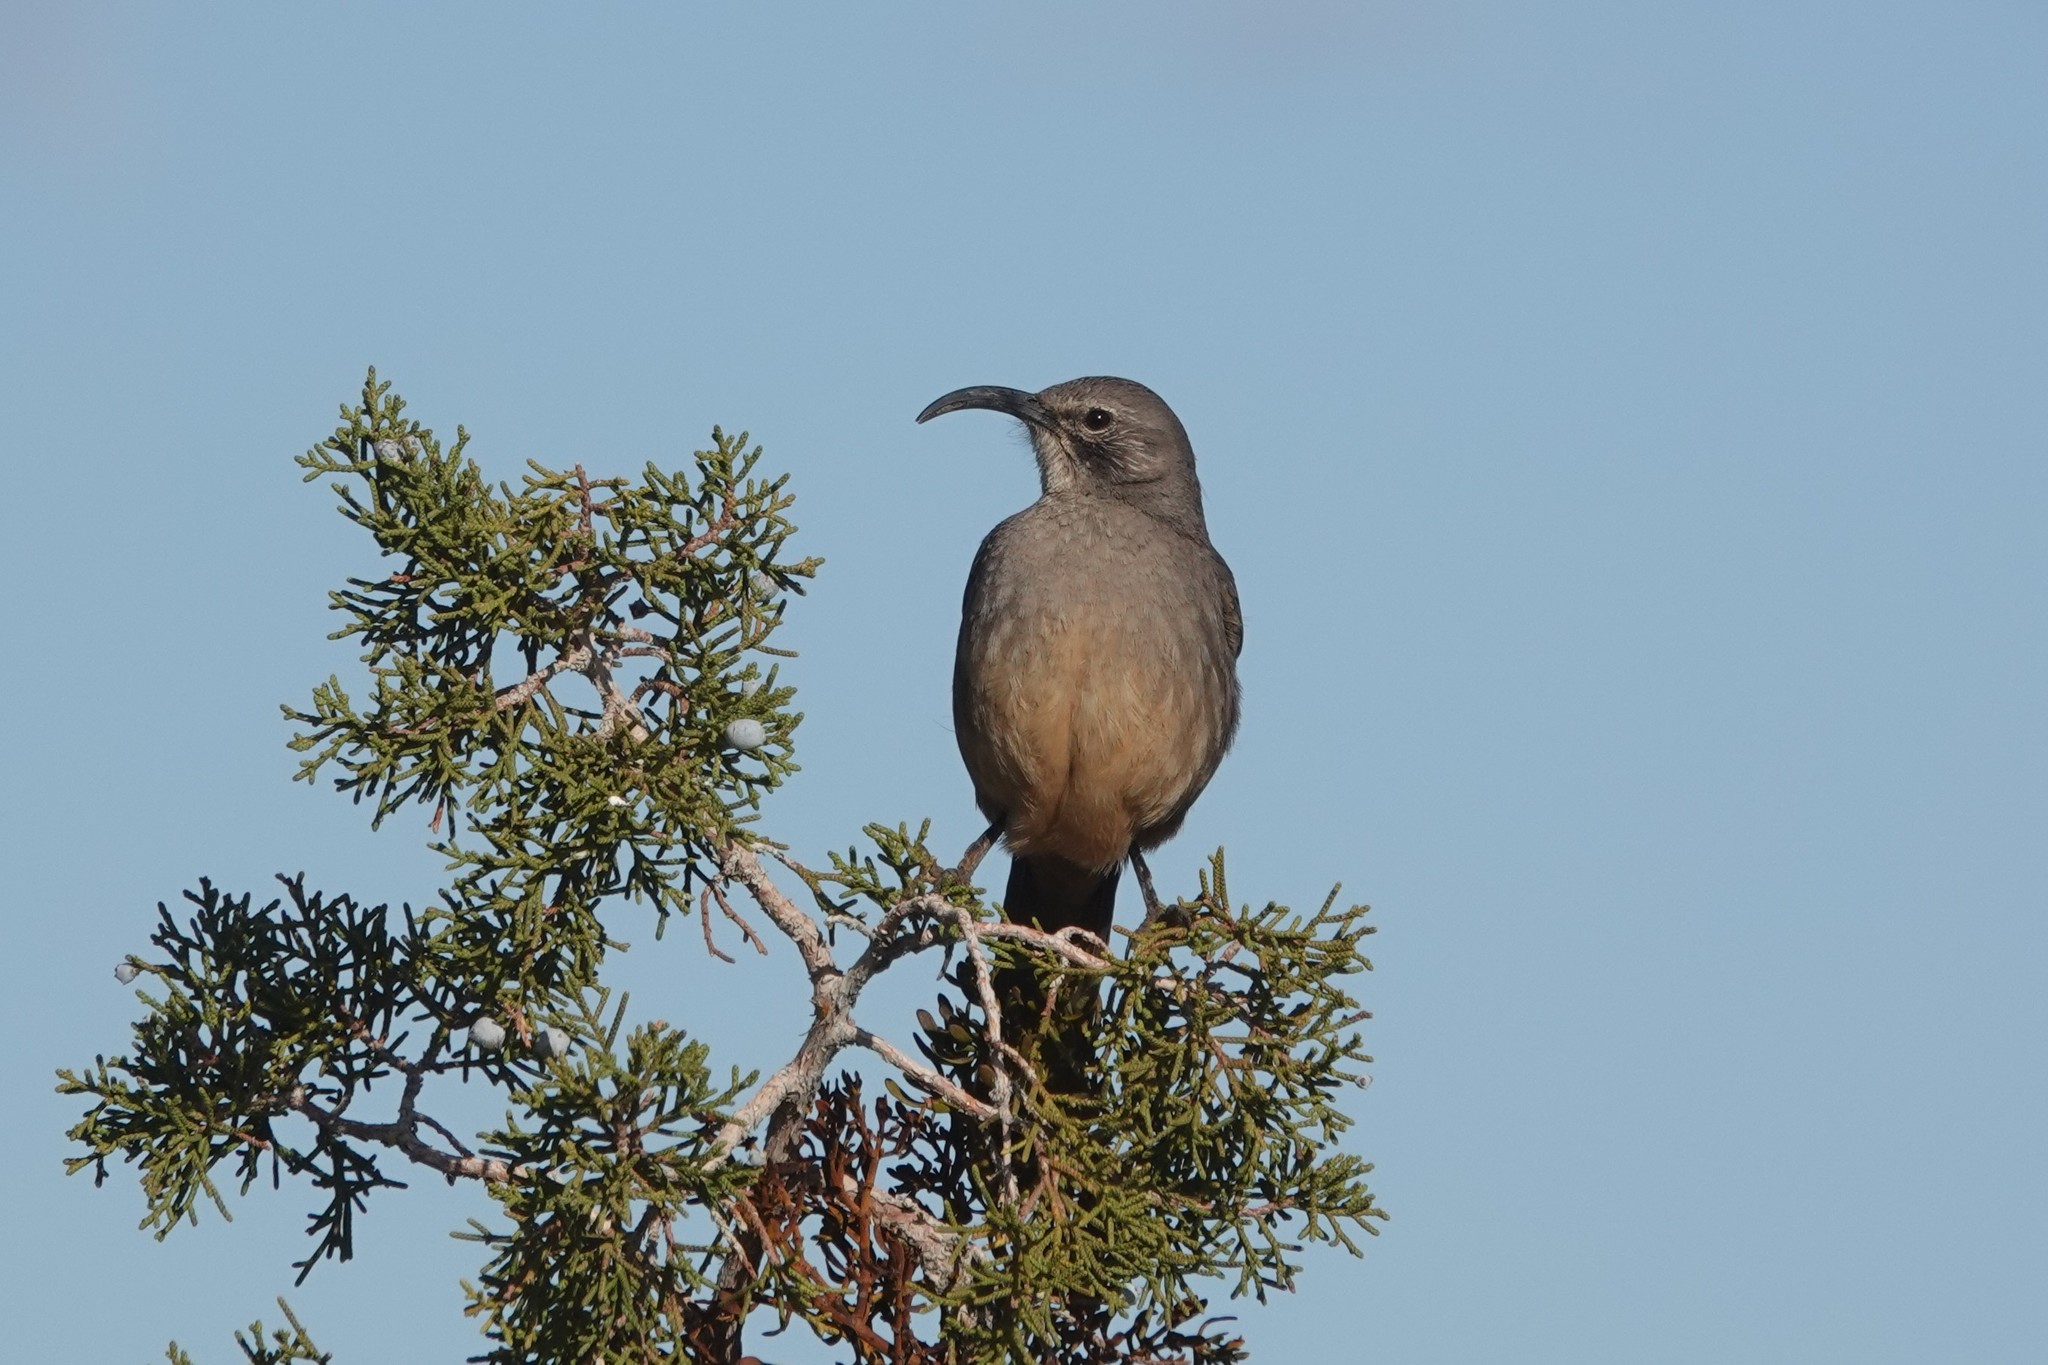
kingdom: Animalia
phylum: Chordata
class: Aves
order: Passeriformes
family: Mimidae
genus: Toxostoma
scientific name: Toxostoma redivivum
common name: California thrasher
